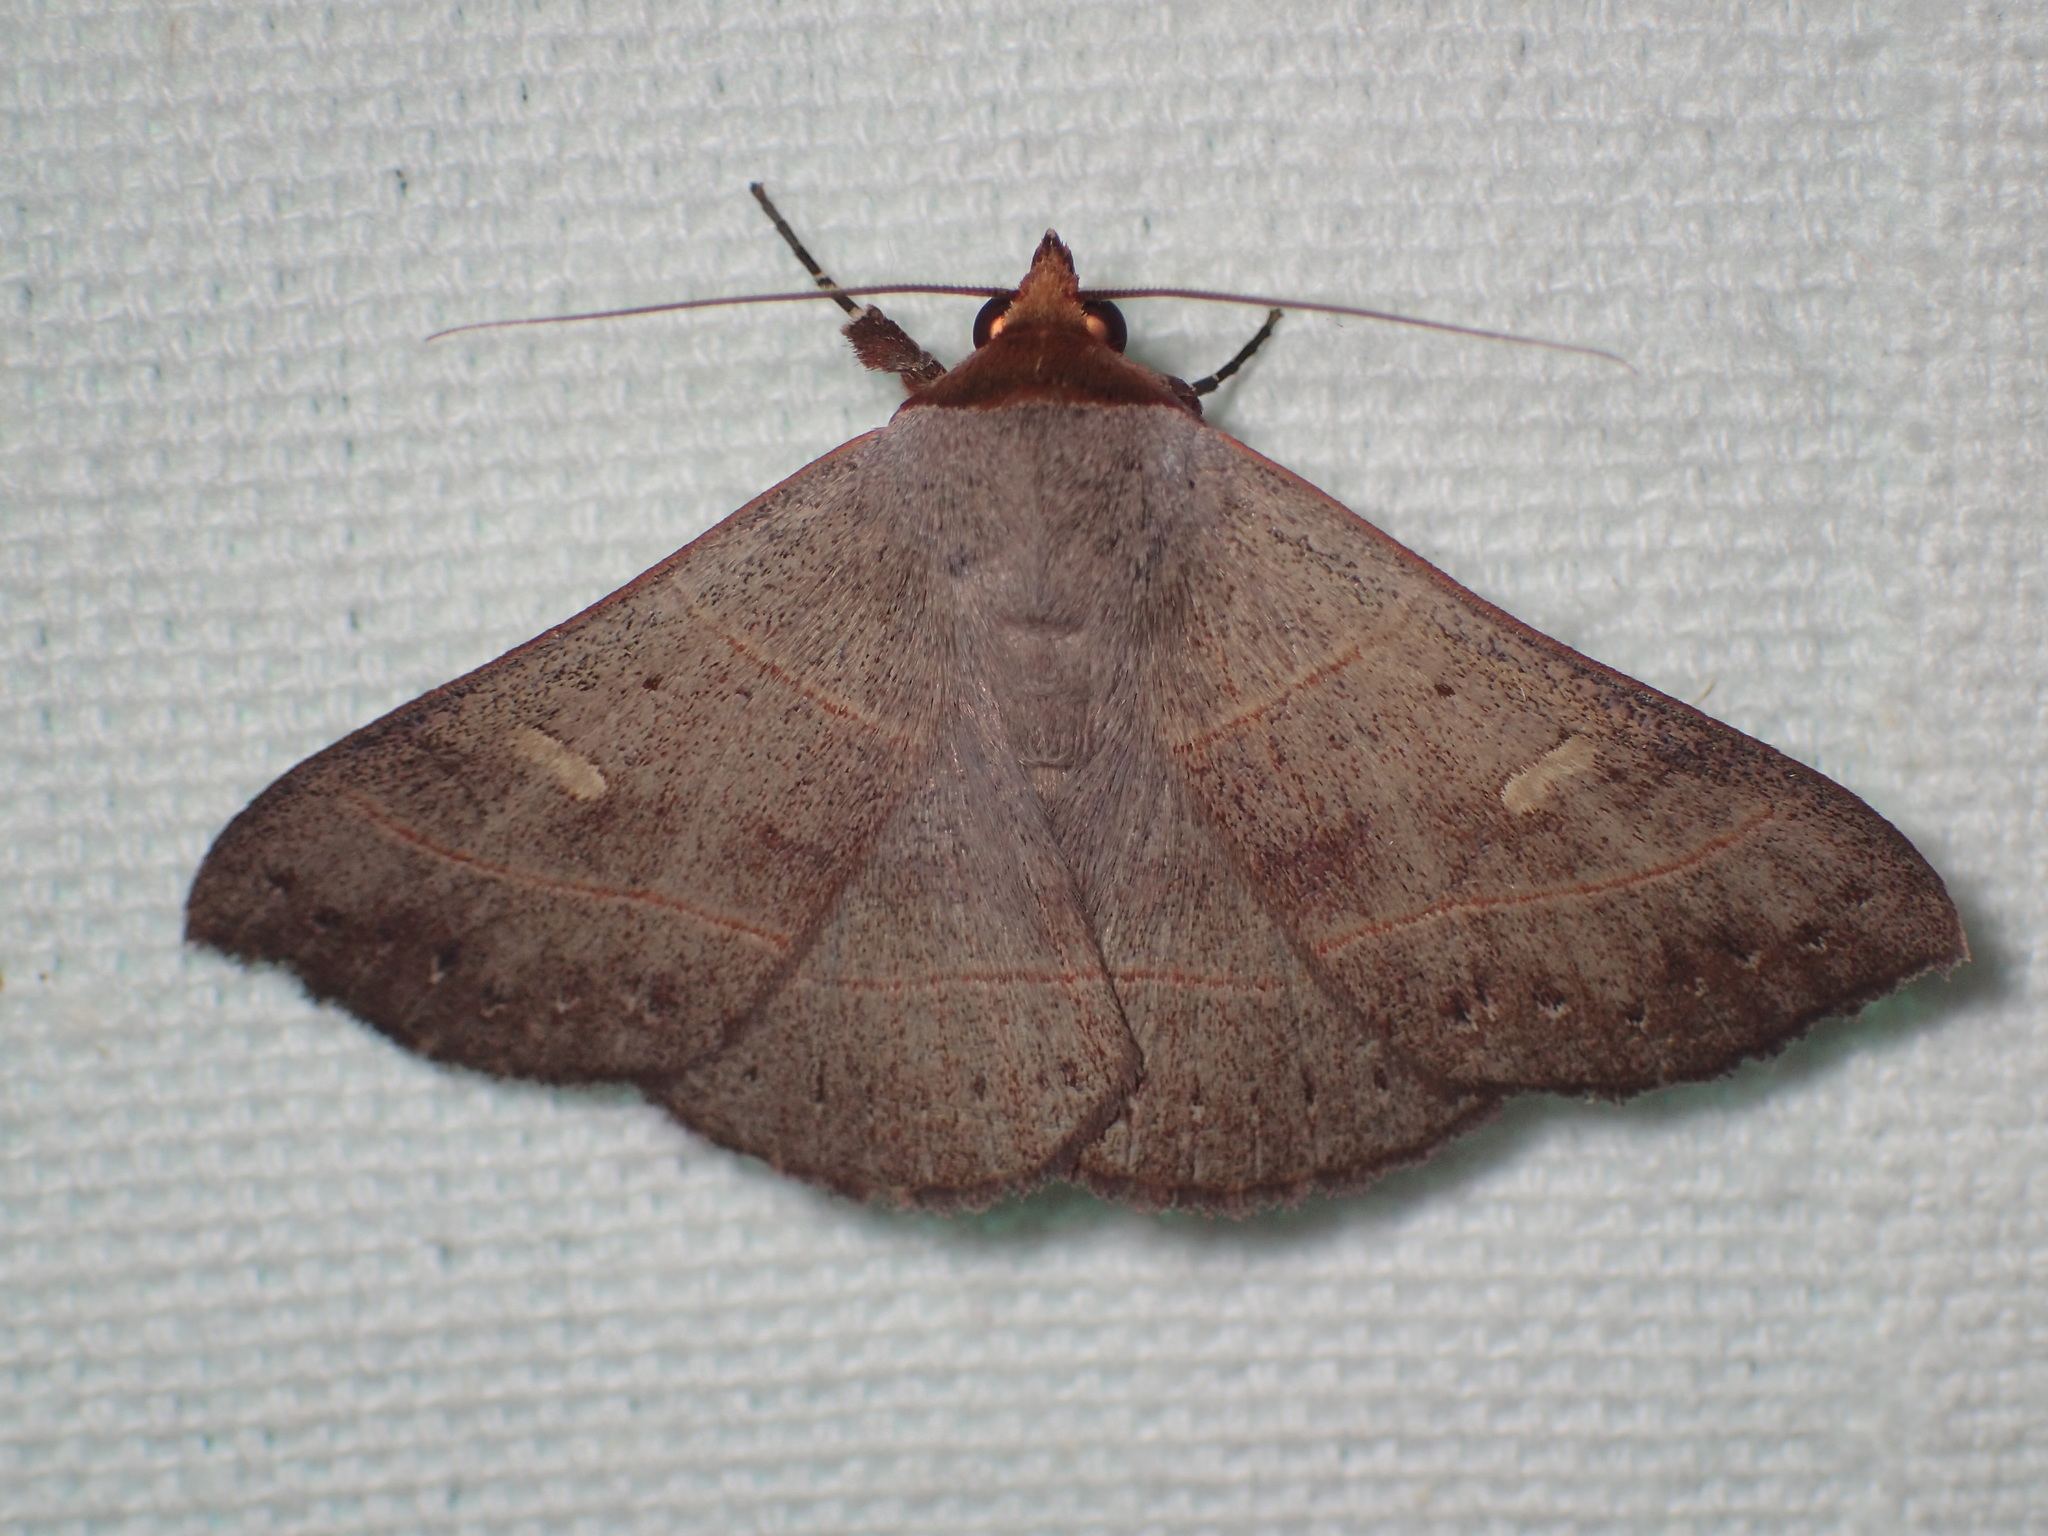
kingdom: Animalia
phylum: Arthropoda
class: Insecta
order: Lepidoptera
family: Erebidae
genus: Panopoda
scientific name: Panopoda rufimargo
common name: Red-lined panopoda moth
